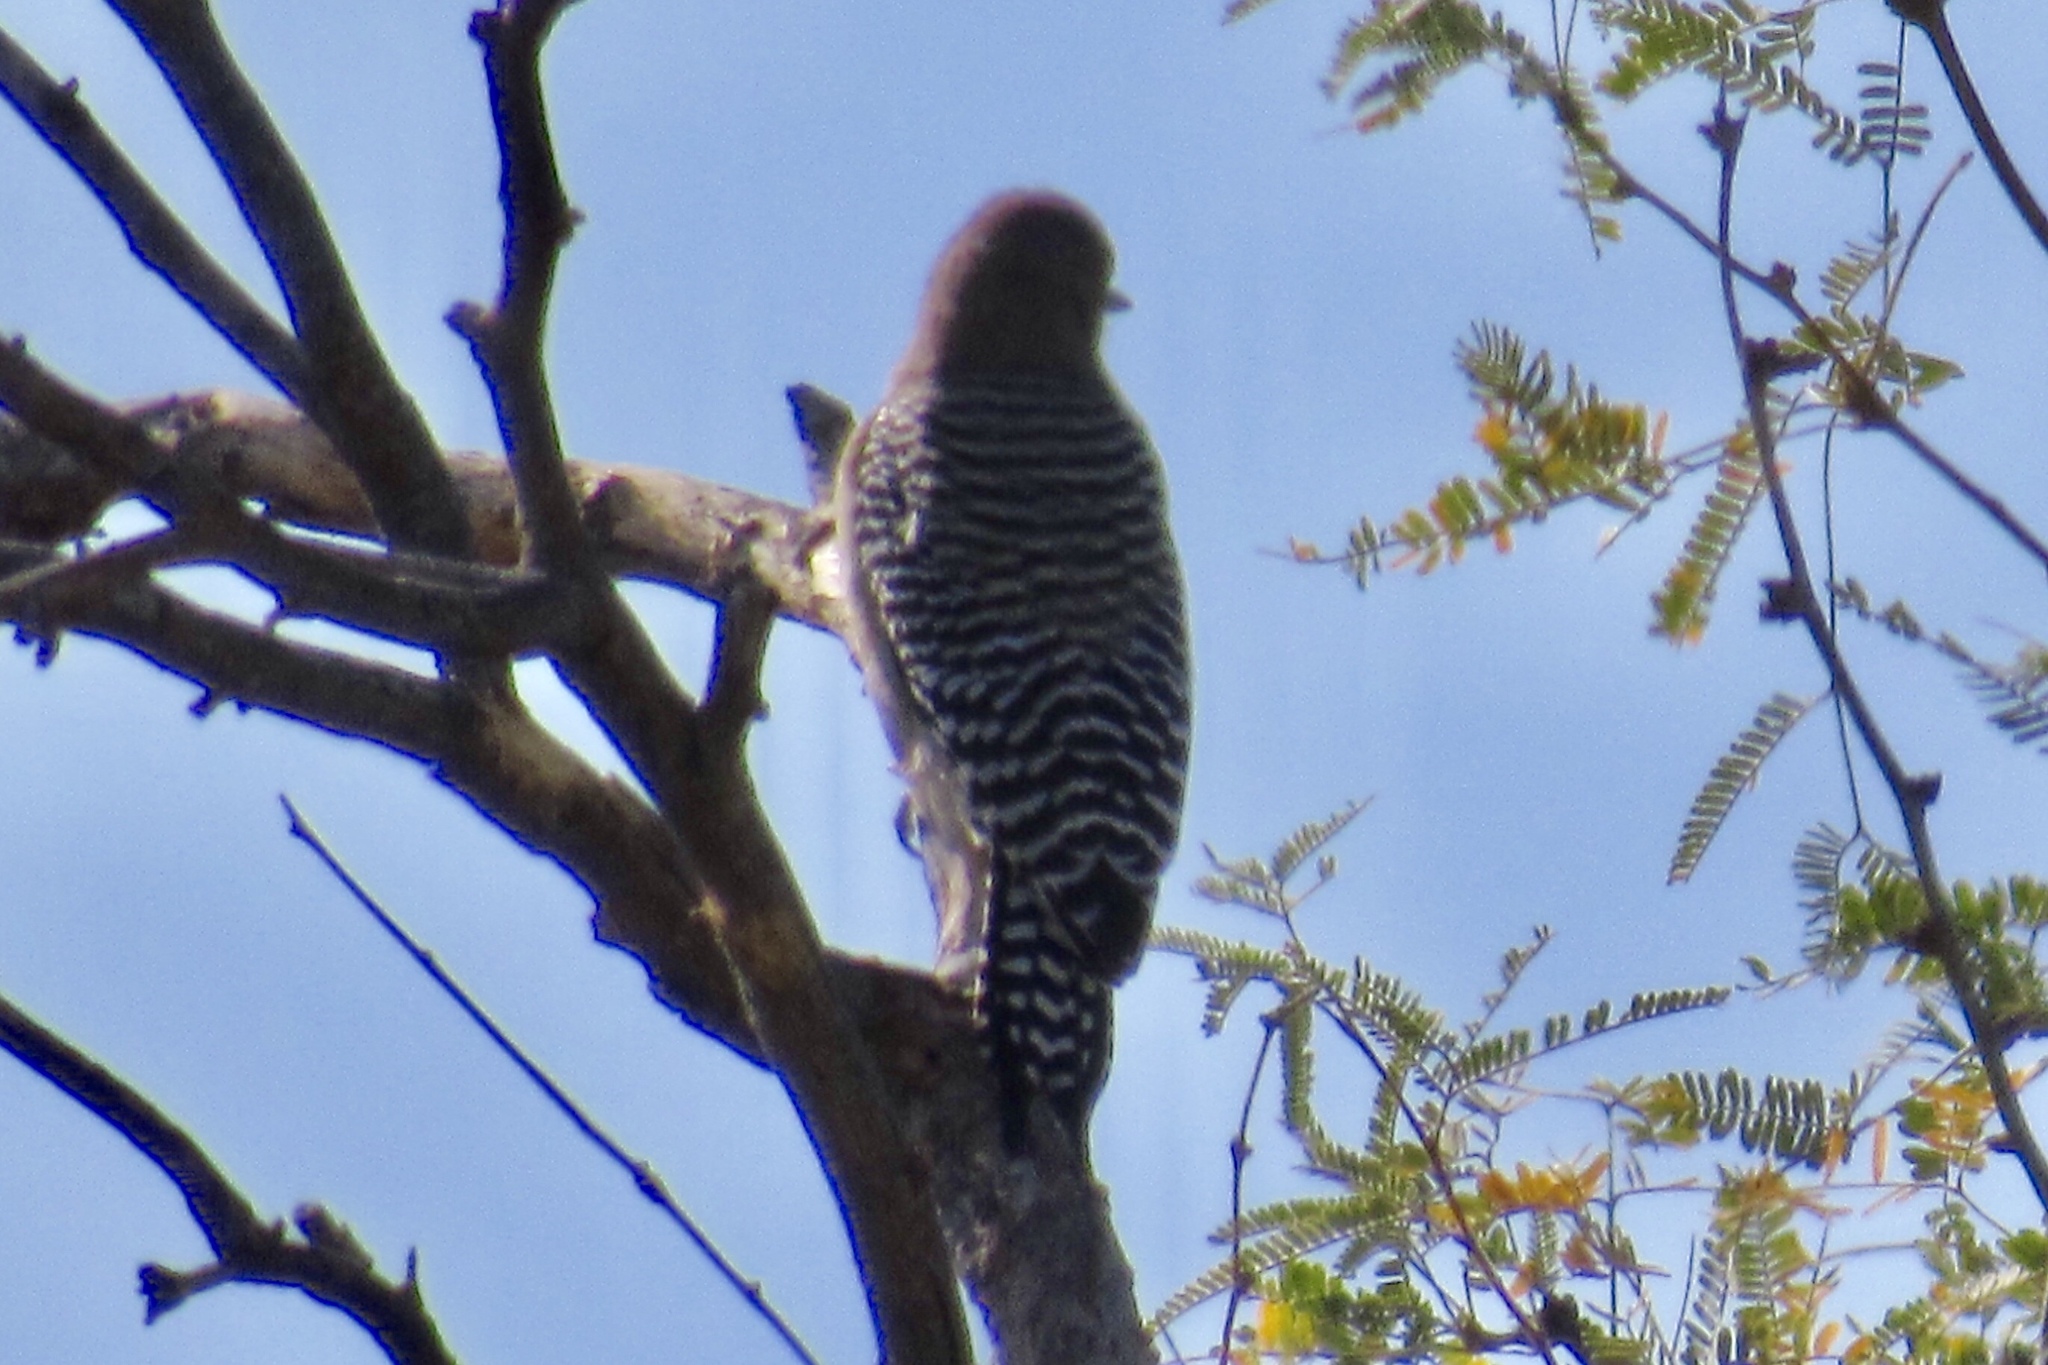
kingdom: Animalia
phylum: Chordata
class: Aves
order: Piciformes
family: Picidae
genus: Melanerpes
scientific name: Melanerpes uropygialis
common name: Gila woodpecker
